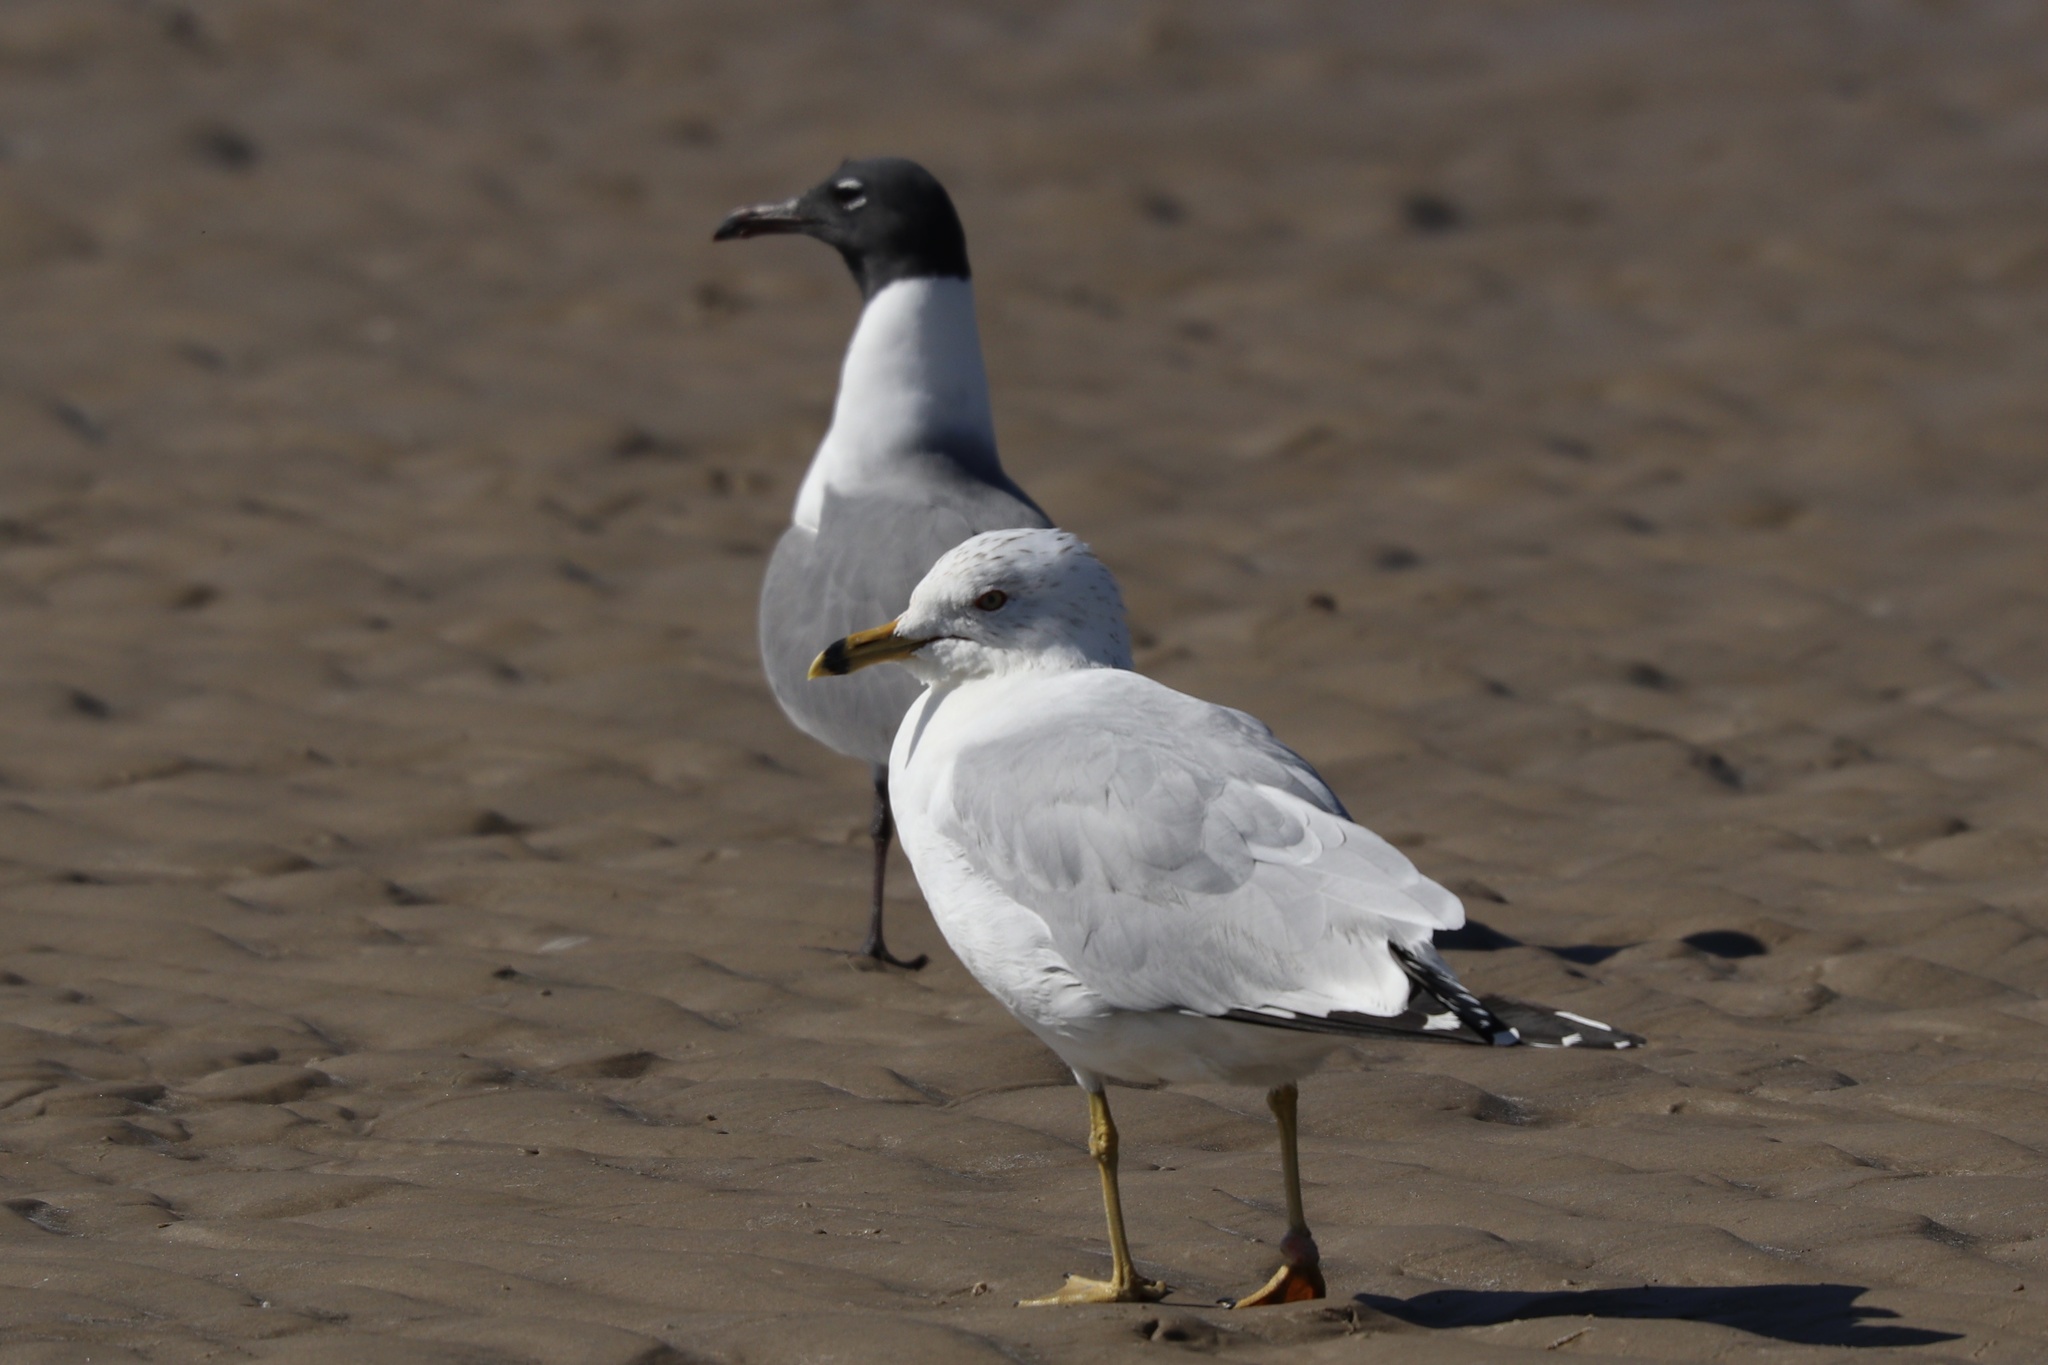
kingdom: Animalia
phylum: Chordata
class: Aves
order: Charadriiformes
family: Laridae
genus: Larus
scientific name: Larus delawarensis
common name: Ring-billed gull
